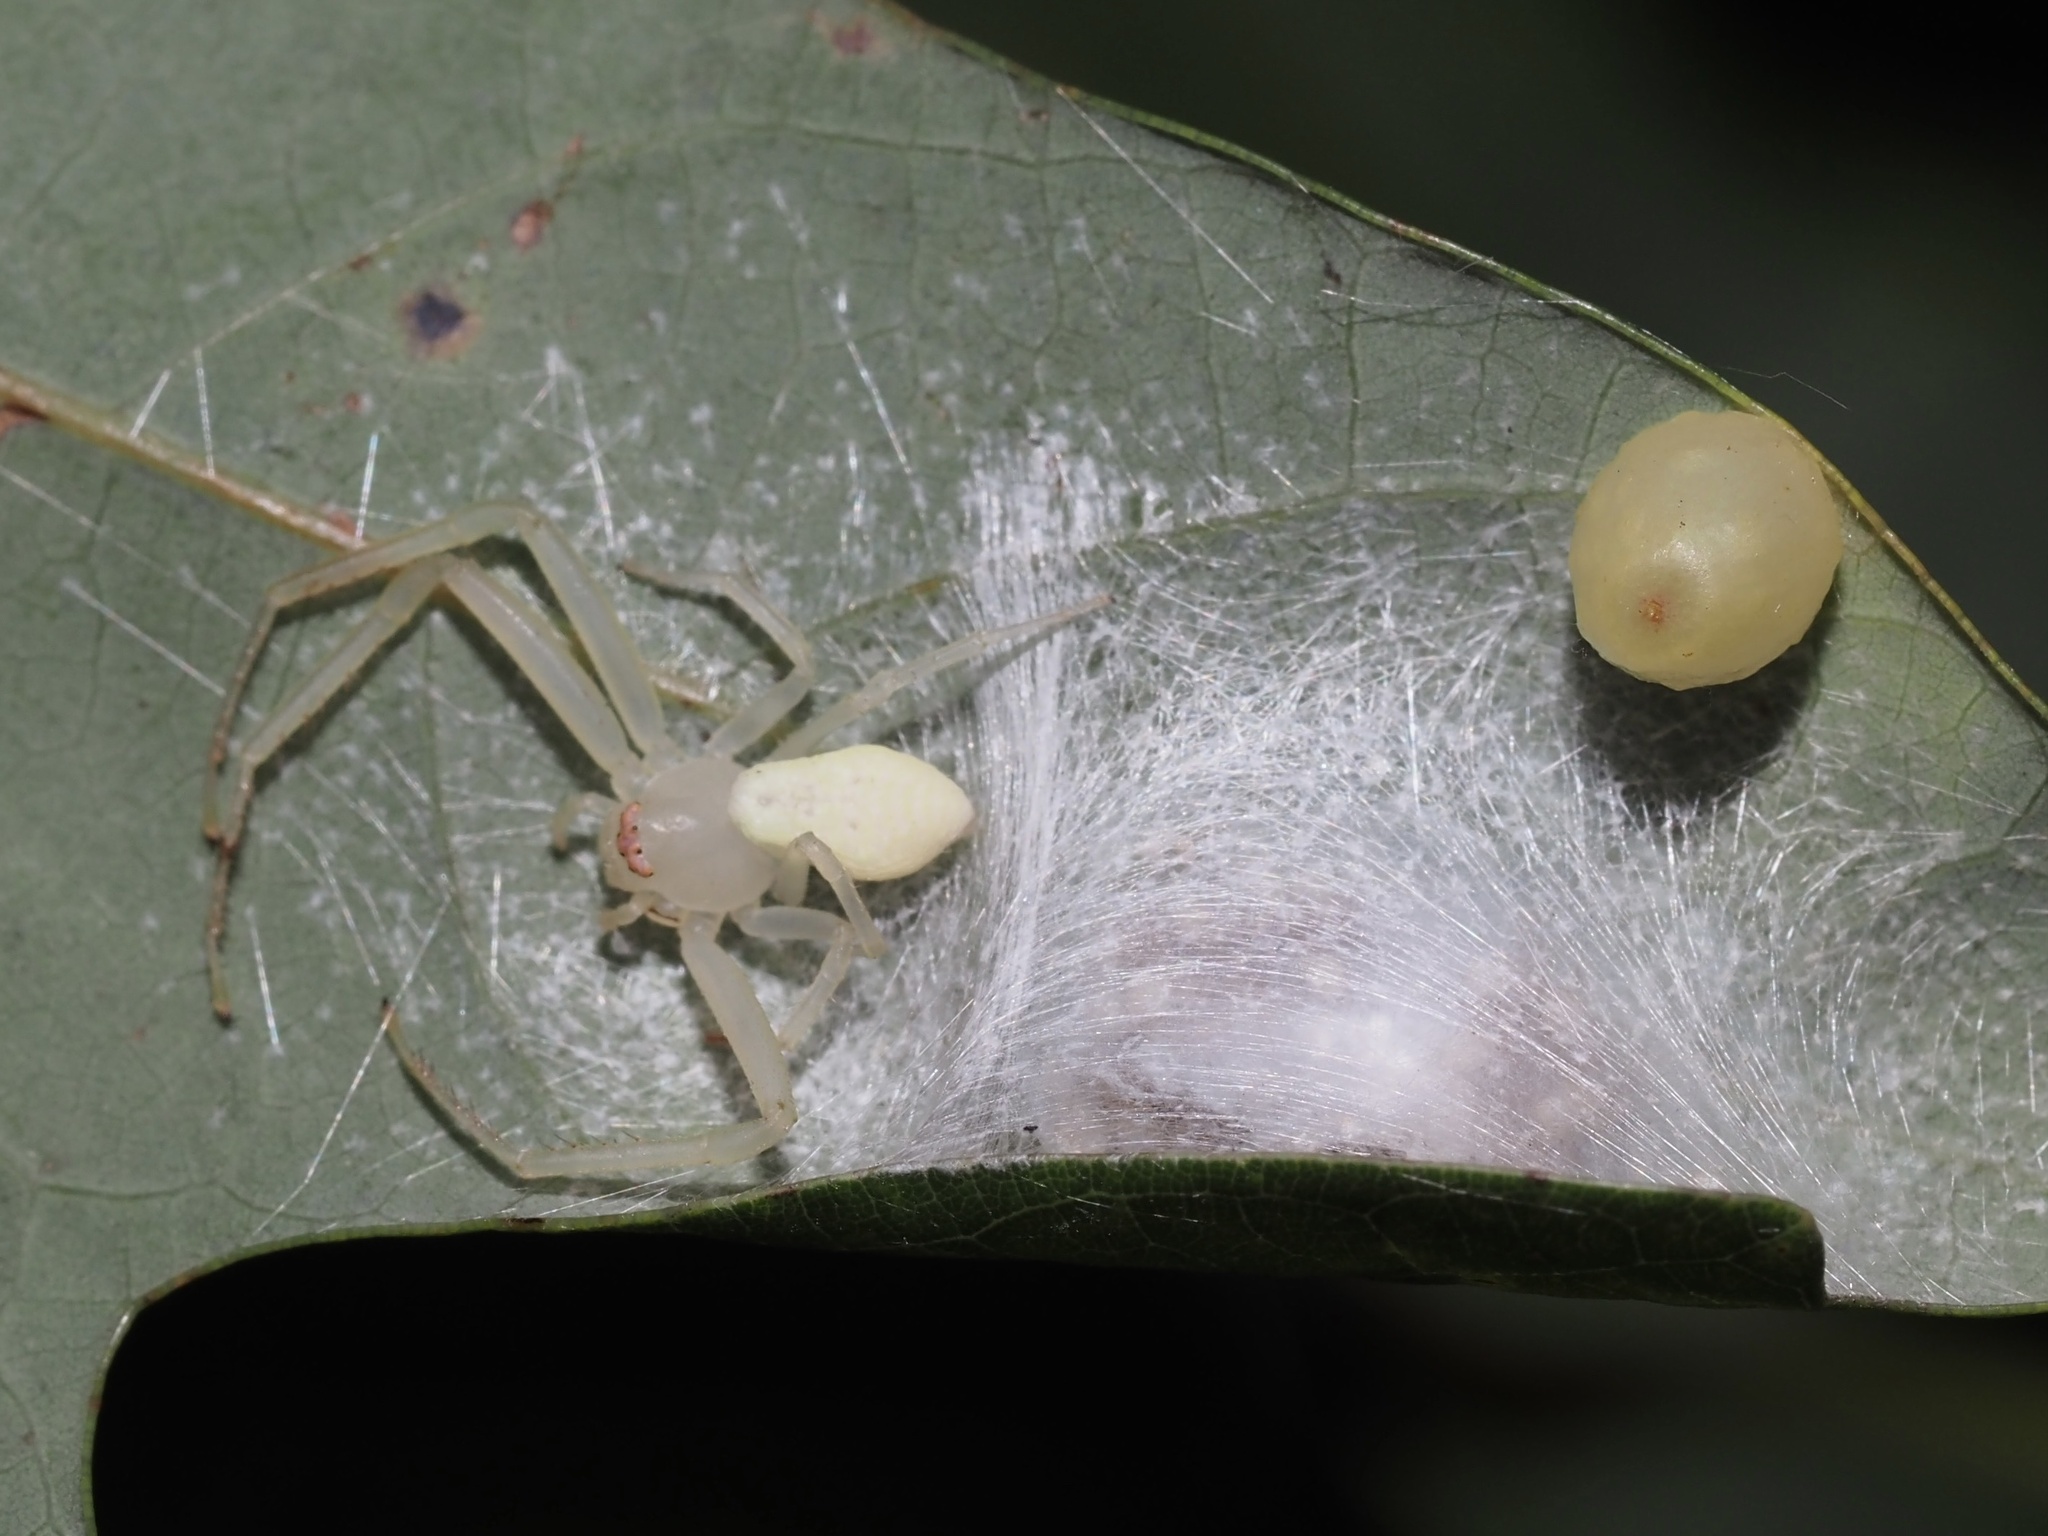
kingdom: Animalia
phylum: Arthropoda
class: Arachnida
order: Araneae
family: Thomisidae
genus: Misumessus
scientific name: Misumessus oblongus
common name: American green crab spider
